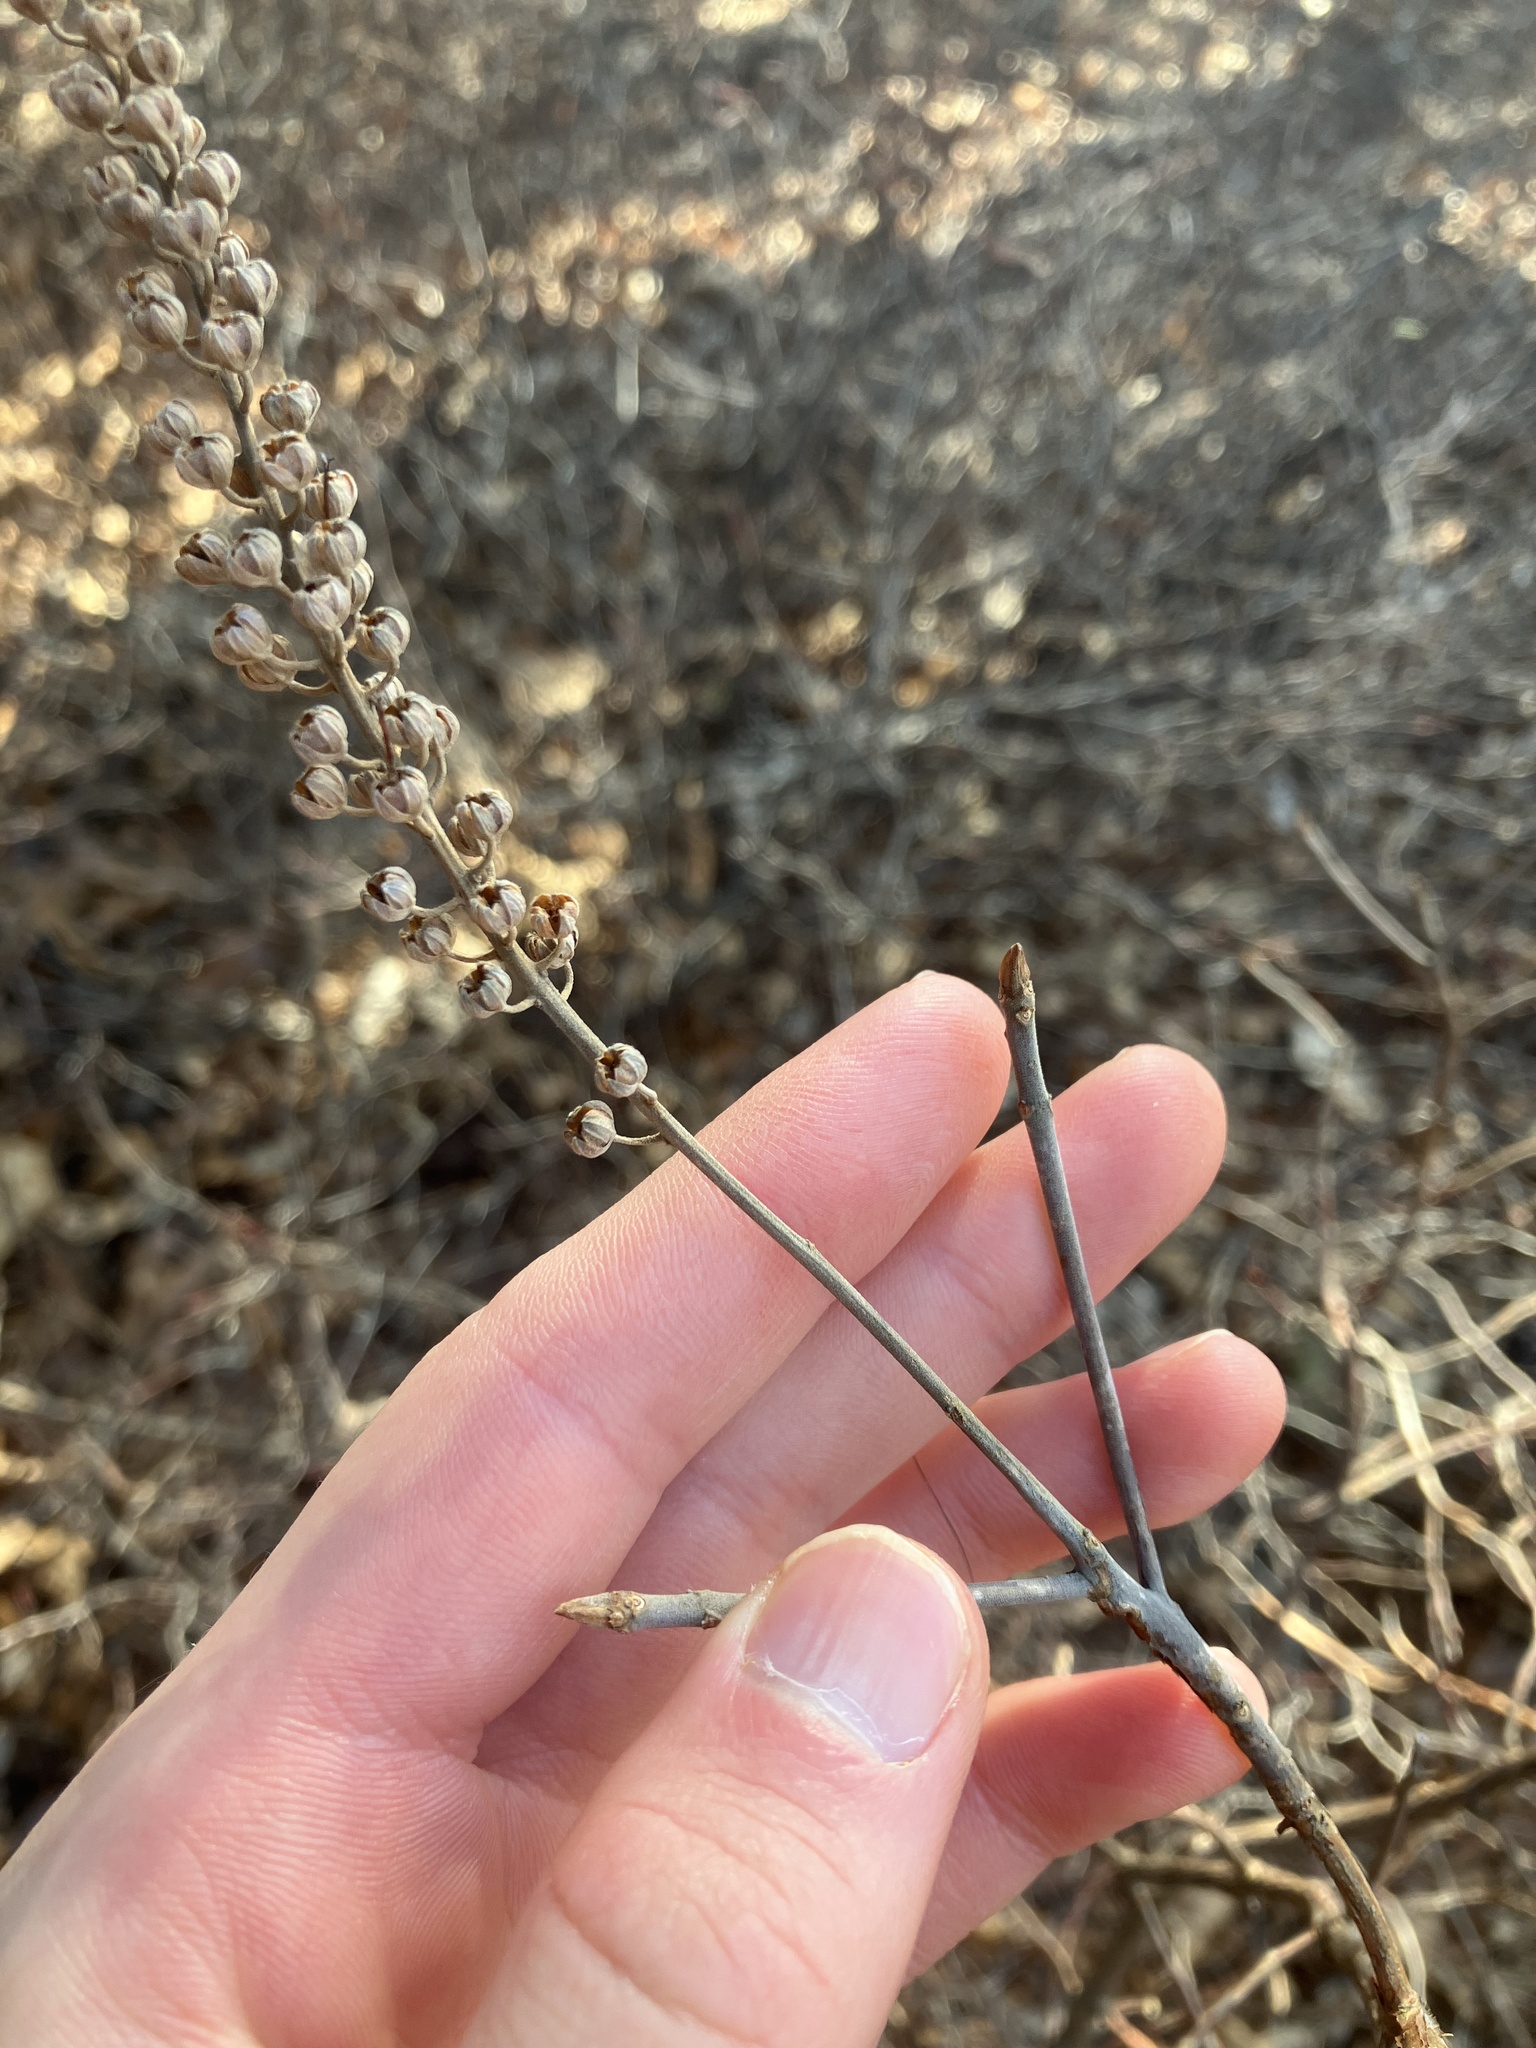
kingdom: Plantae
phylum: Tracheophyta
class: Magnoliopsida
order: Ericales
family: Clethraceae
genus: Clethra
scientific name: Clethra alnifolia
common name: Sweet pepperbush
